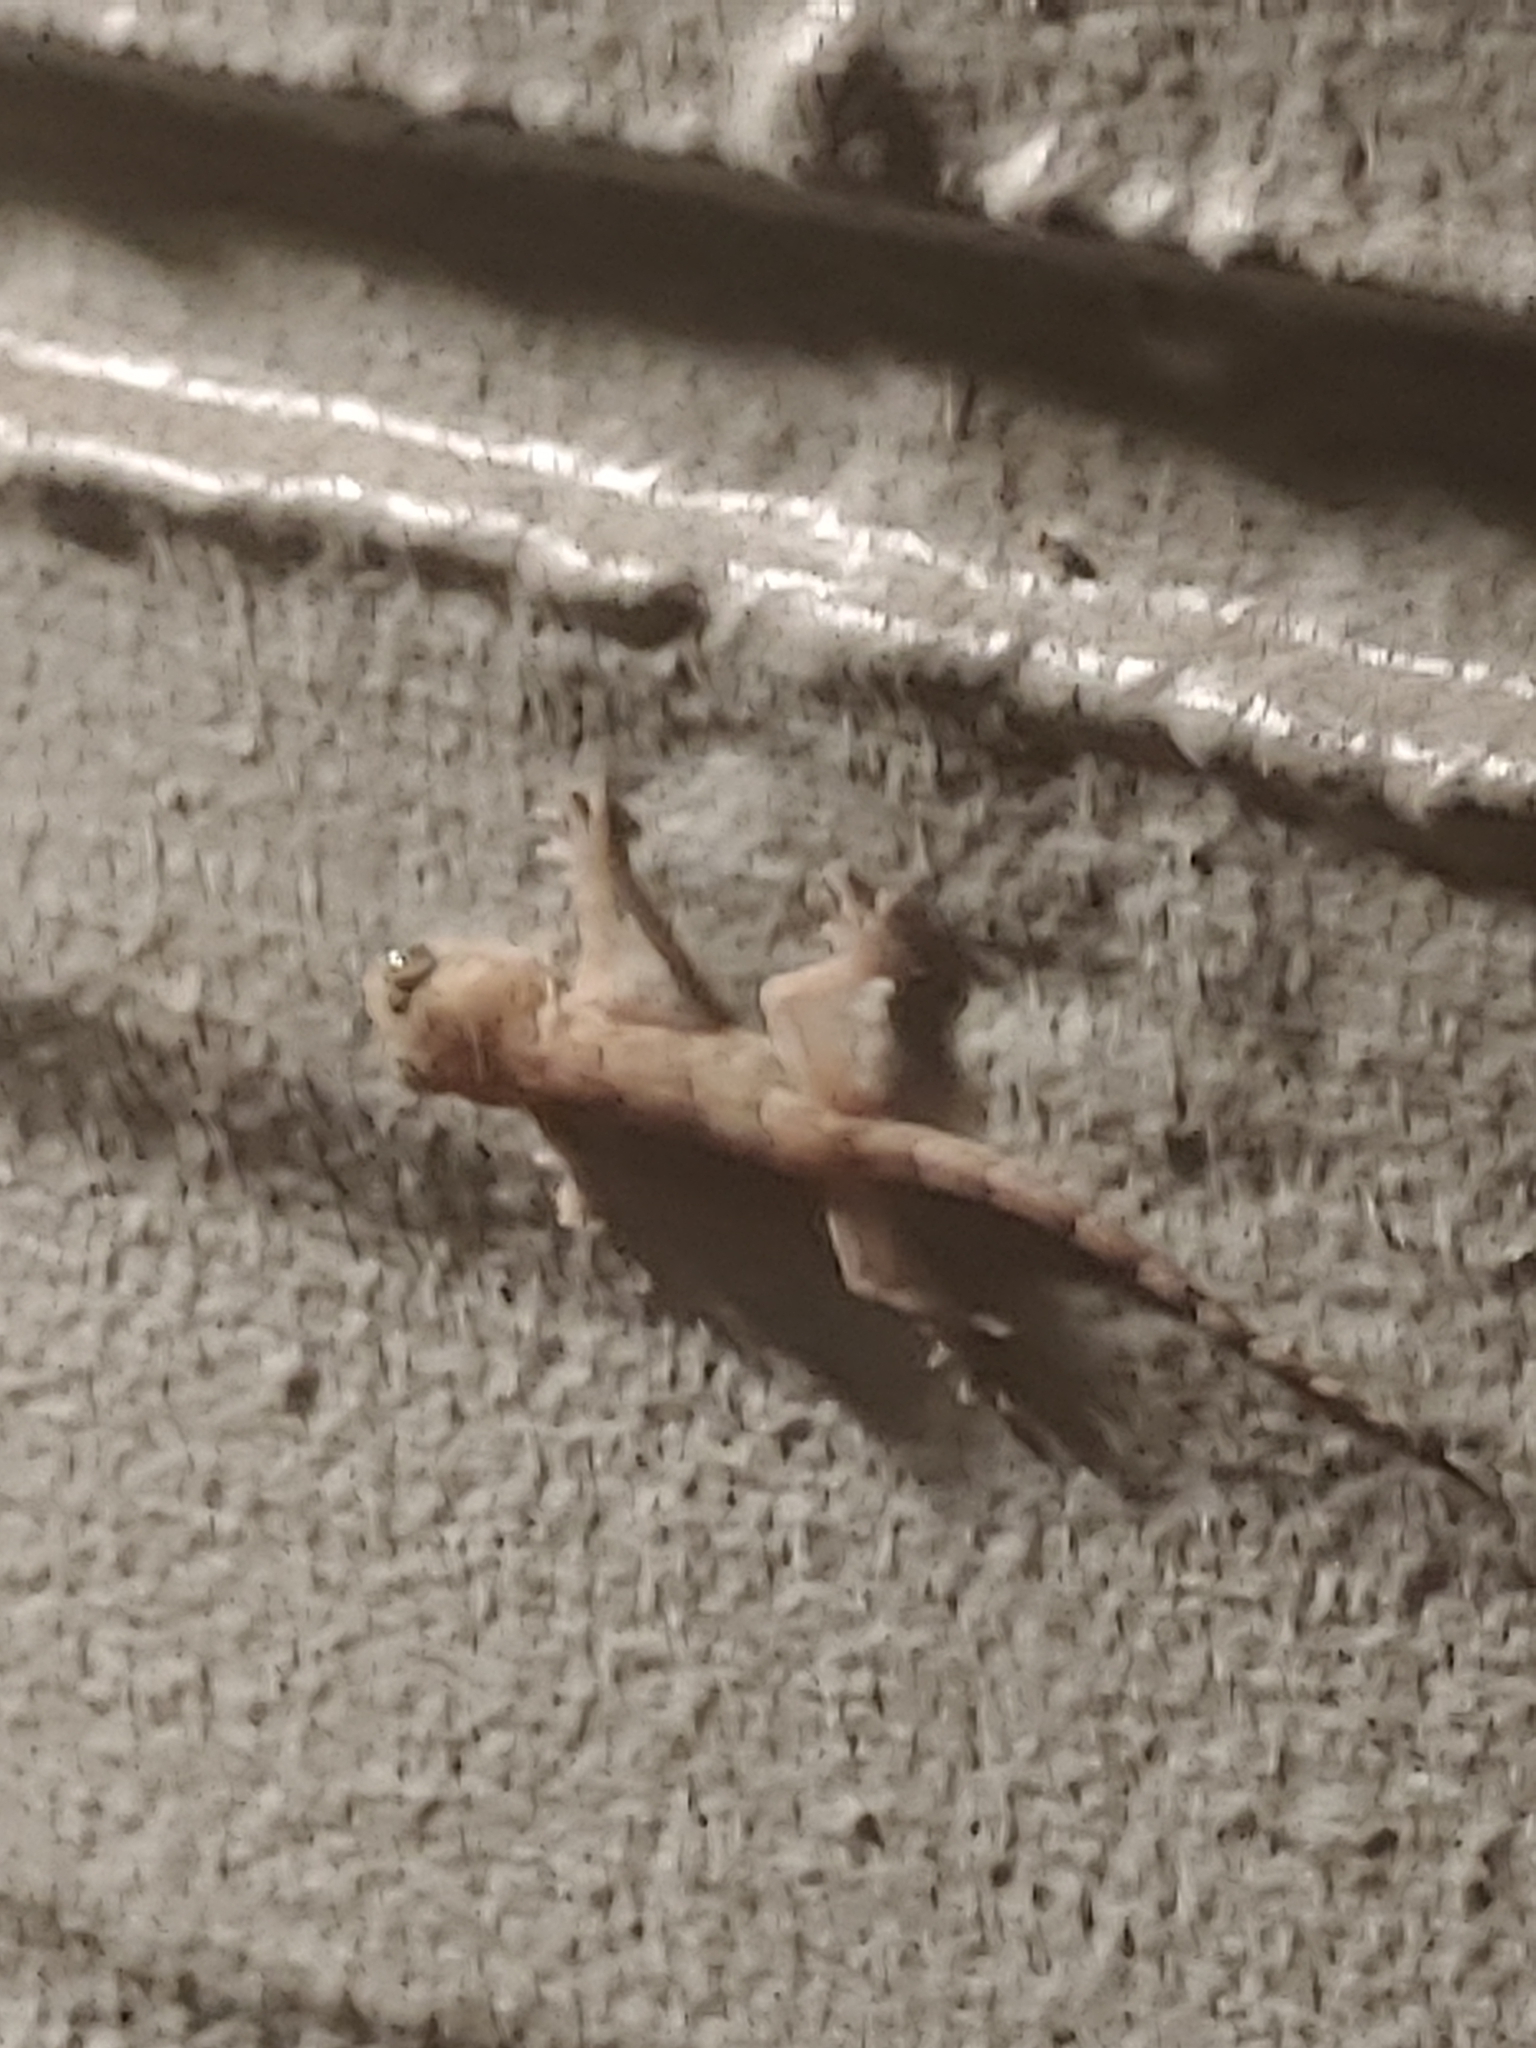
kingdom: Animalia
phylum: Chordata
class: Squamata
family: Gekkonidae
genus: Hemidactylus
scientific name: Hemidactylus mabouia
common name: House gecko
